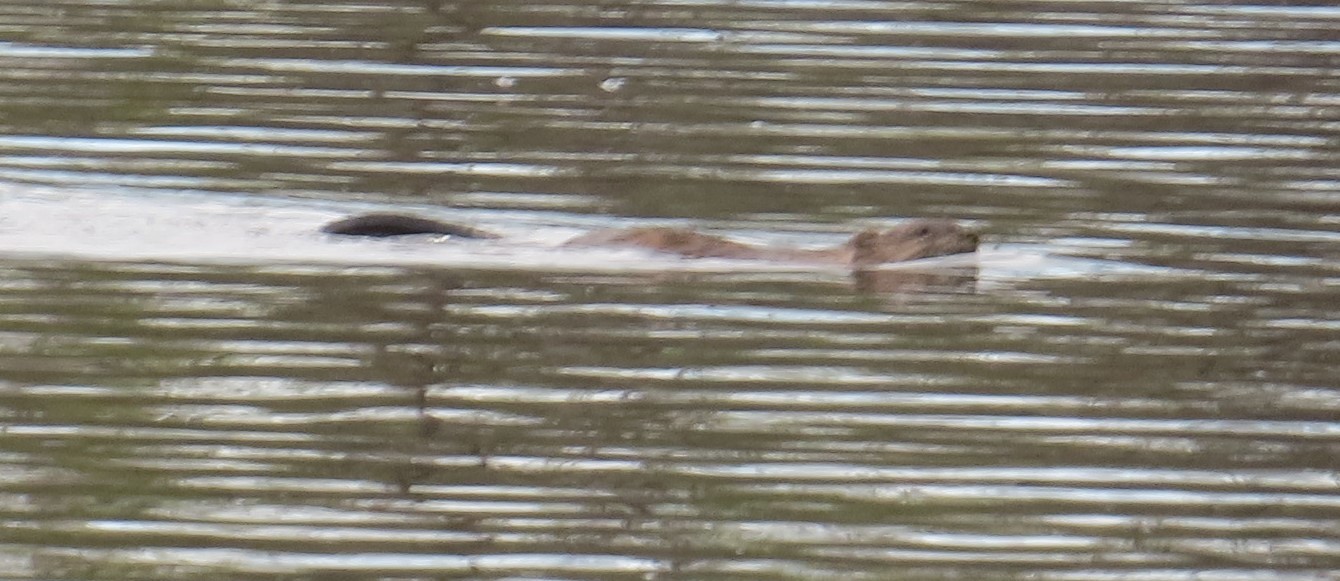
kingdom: Animalia
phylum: Chordata
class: Mammalia
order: Rodentia
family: Cricetidae
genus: Ondatra
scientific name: Ondatra zibethicus
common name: Muskrat
